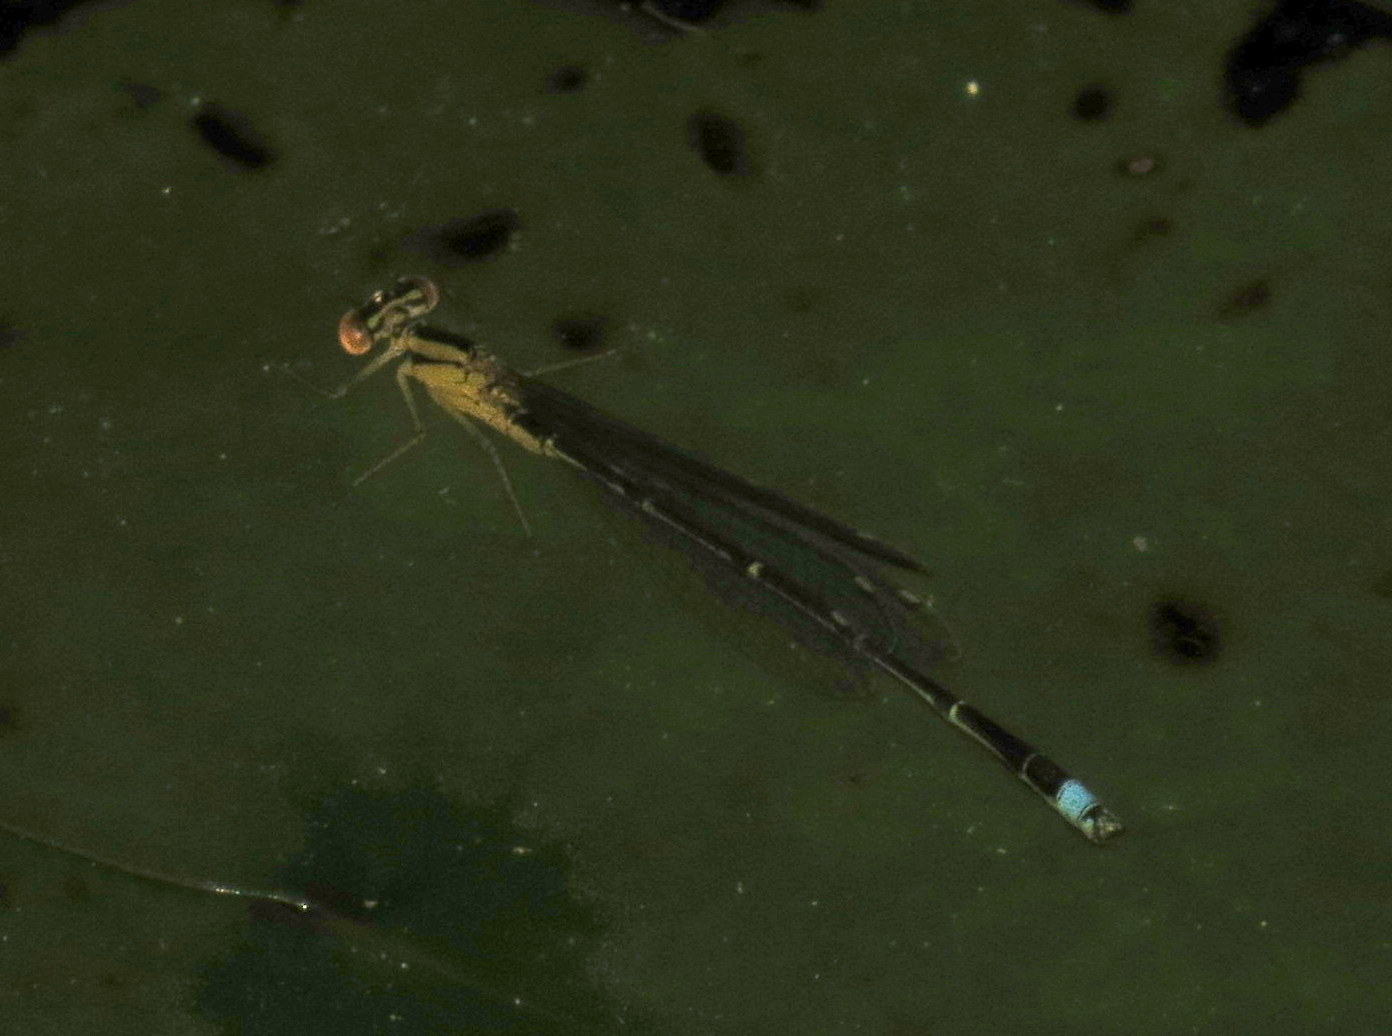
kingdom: Animalia
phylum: Arthropoda
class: Insecta
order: Odonata
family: Coenagrionidae
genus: Enallagma
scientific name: Enallagma vesperum
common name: Vesper bluet
